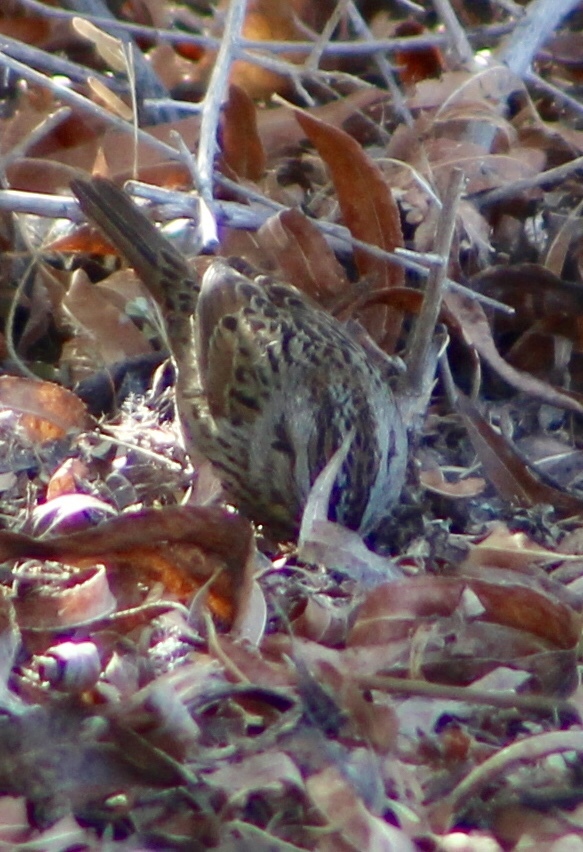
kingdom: Animalia
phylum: Chordata
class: Aves
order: Passeriformes
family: Passerellidae
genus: Melospiza
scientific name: Melospiza lincolnii
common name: Lincoln's sparrow
